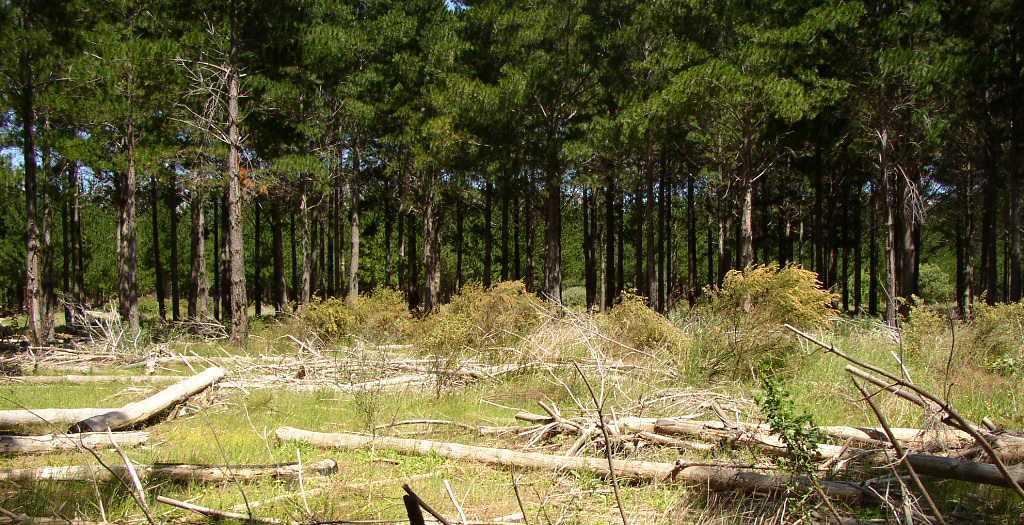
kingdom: Plantae
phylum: Tracheophyta
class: Magnoliopsida
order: Malvales
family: Thymelaeaceae
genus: Passerina
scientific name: Passerina corymbosa
